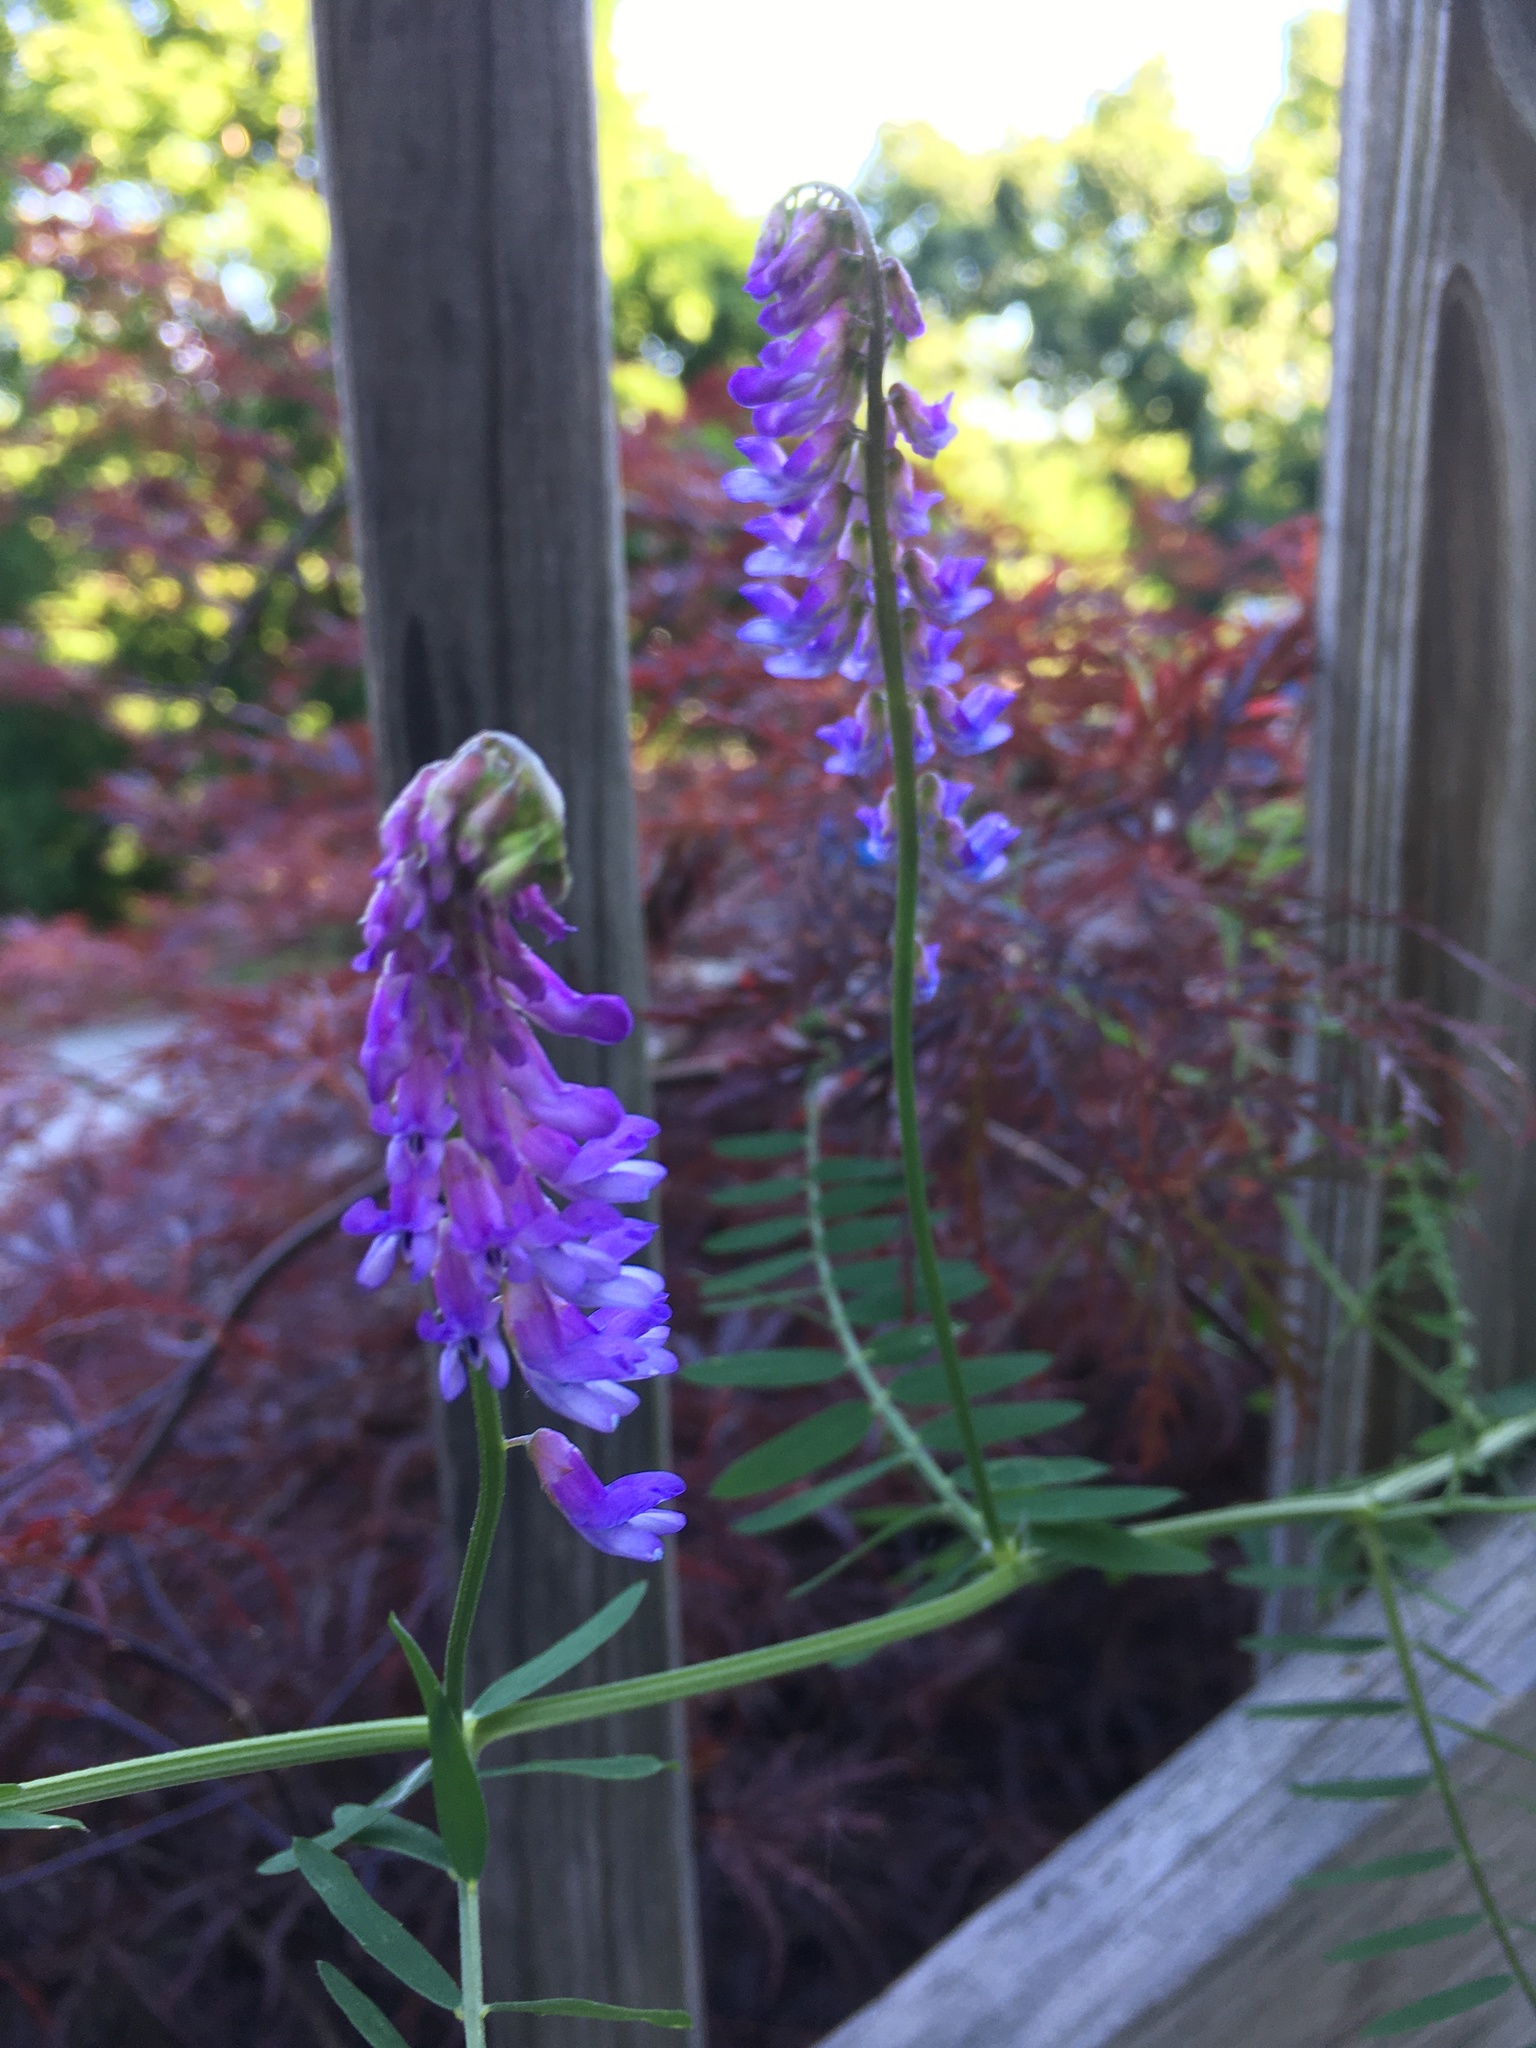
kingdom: Plantae
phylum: Tracheophyta
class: Magnoliopsida
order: Fabales
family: Fabaceae
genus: Vicia
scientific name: Vicia cracca
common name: Bird vetch
